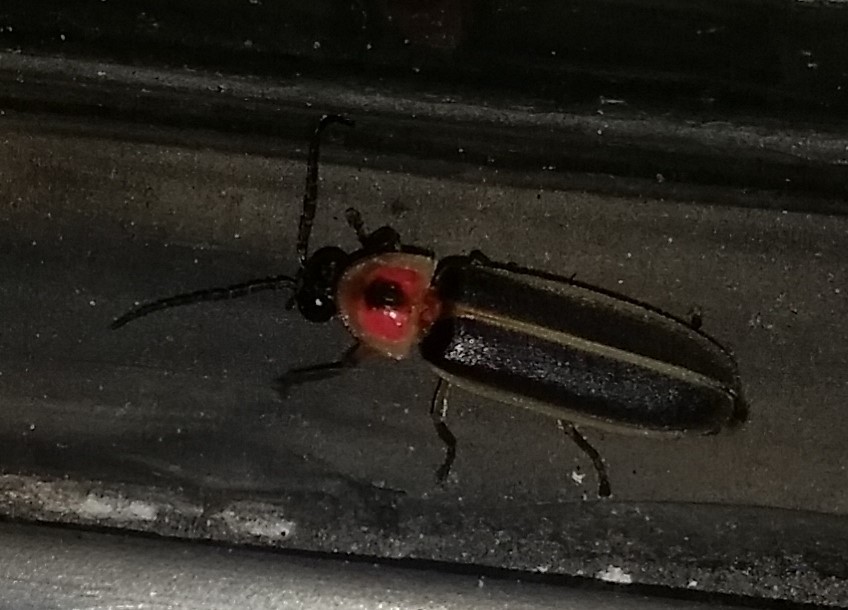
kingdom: Animalia
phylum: Arthropoda
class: Insecta
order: Coleoptera
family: Lampyridae
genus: Photinus
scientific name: Photinus pyralis
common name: Big dipper firefly
